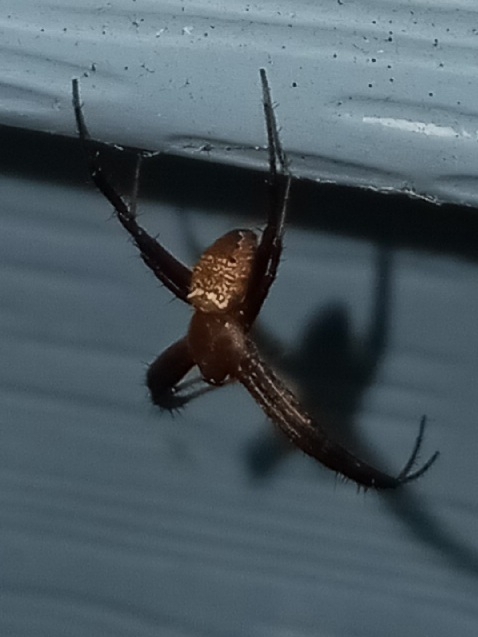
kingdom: Animalia
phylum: Arthropoda
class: Arachnida
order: Araneae
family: Araneidae
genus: Gea
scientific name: Gea heptagon
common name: Orb weavers
